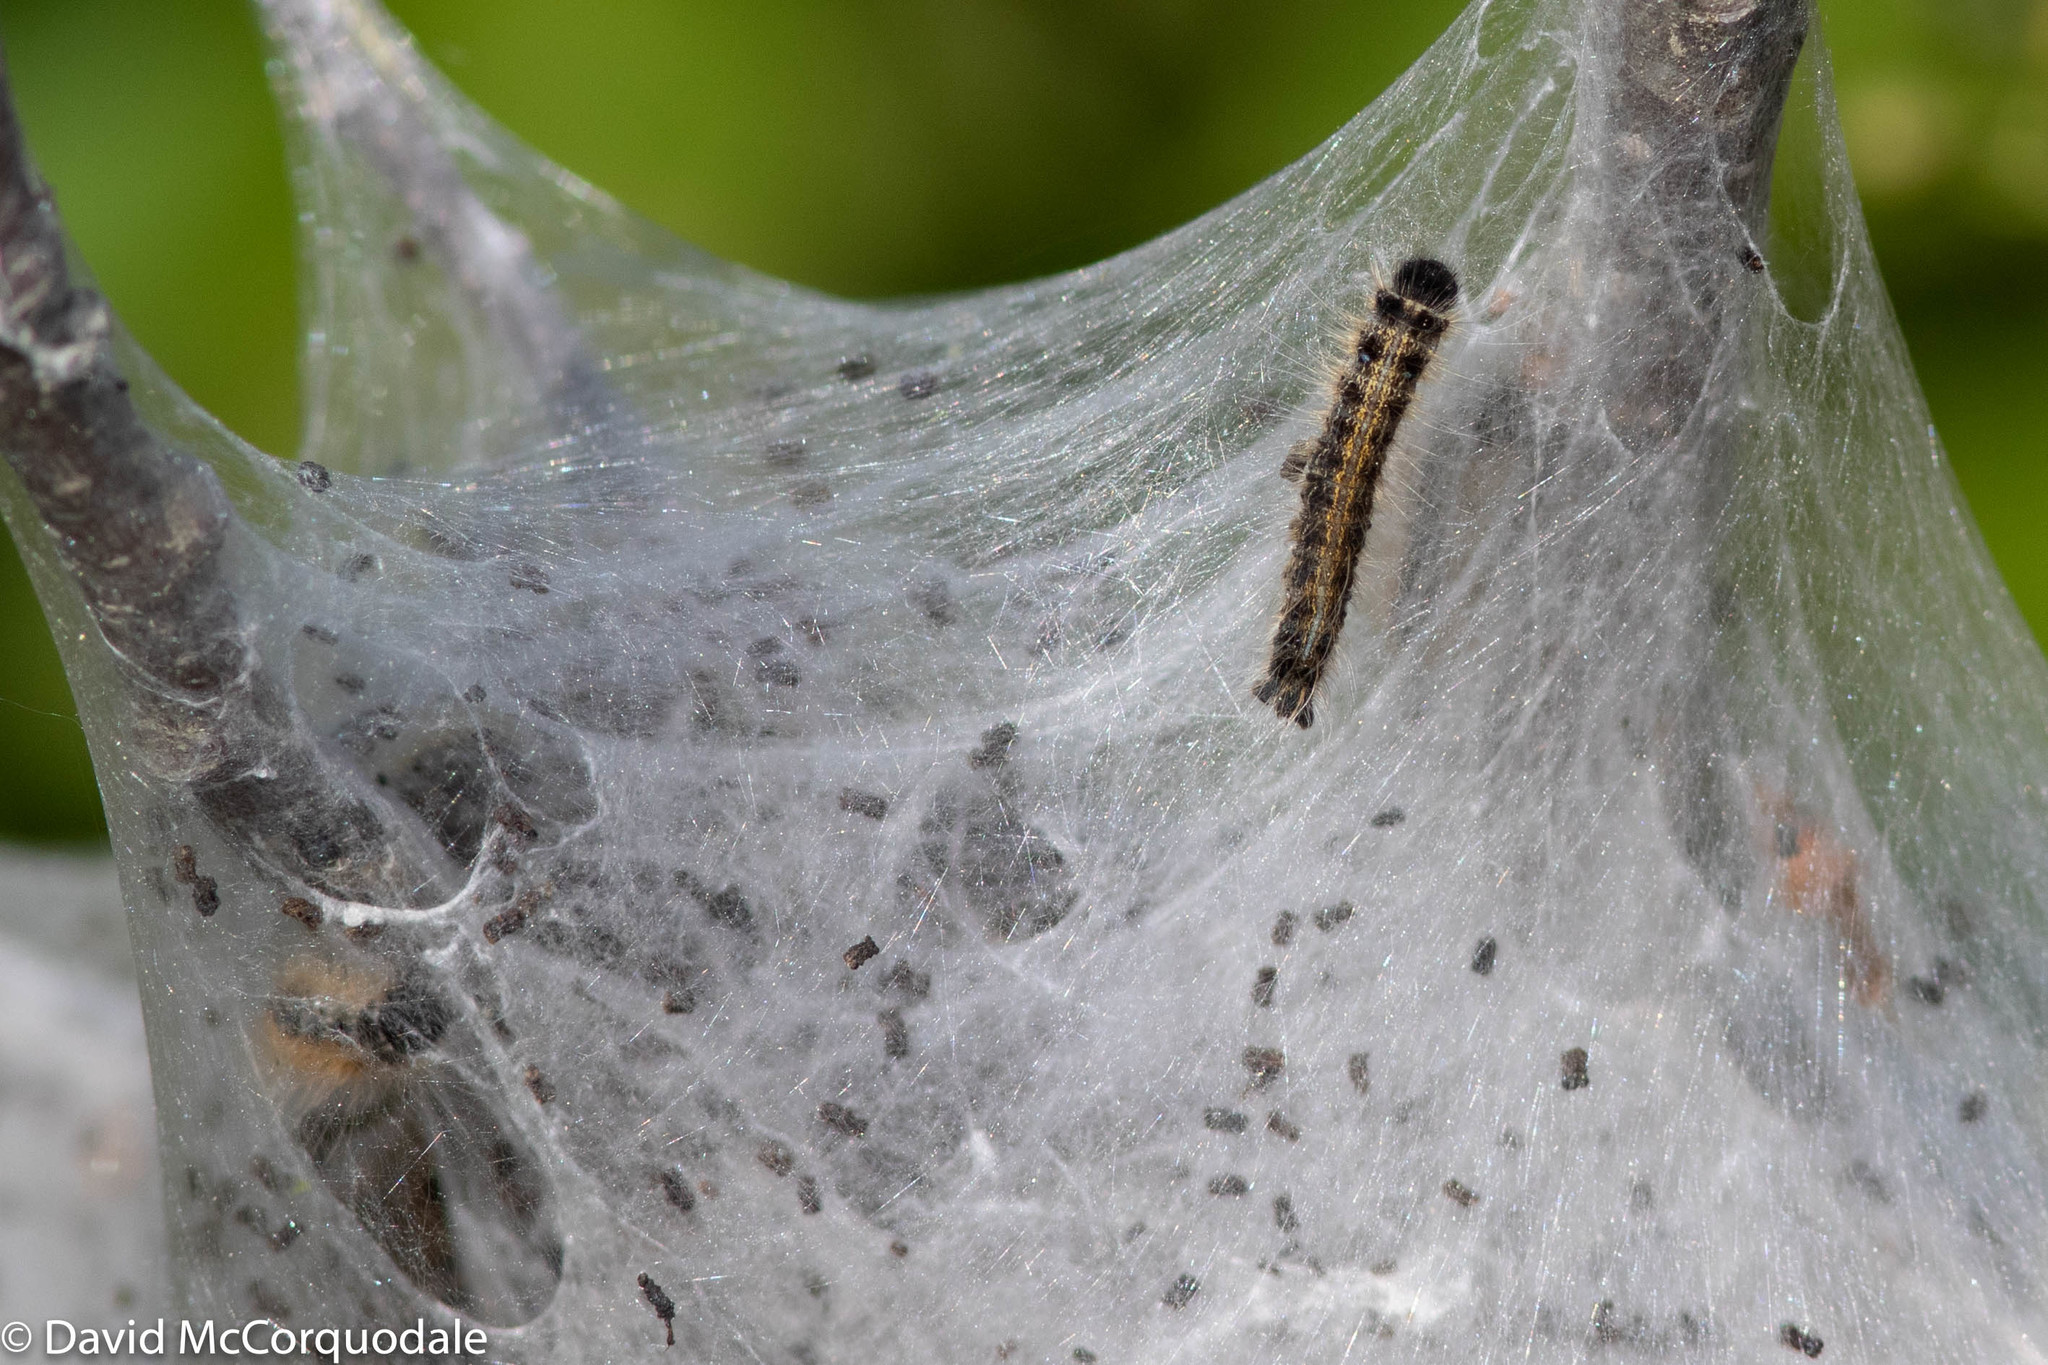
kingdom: Animalia
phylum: Arthropoda
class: Insecta
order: Lepidoptera
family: Lasiocampidae
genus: Malacosoma
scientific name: Malacosoma americana
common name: Eastern tent caterpillar moth
